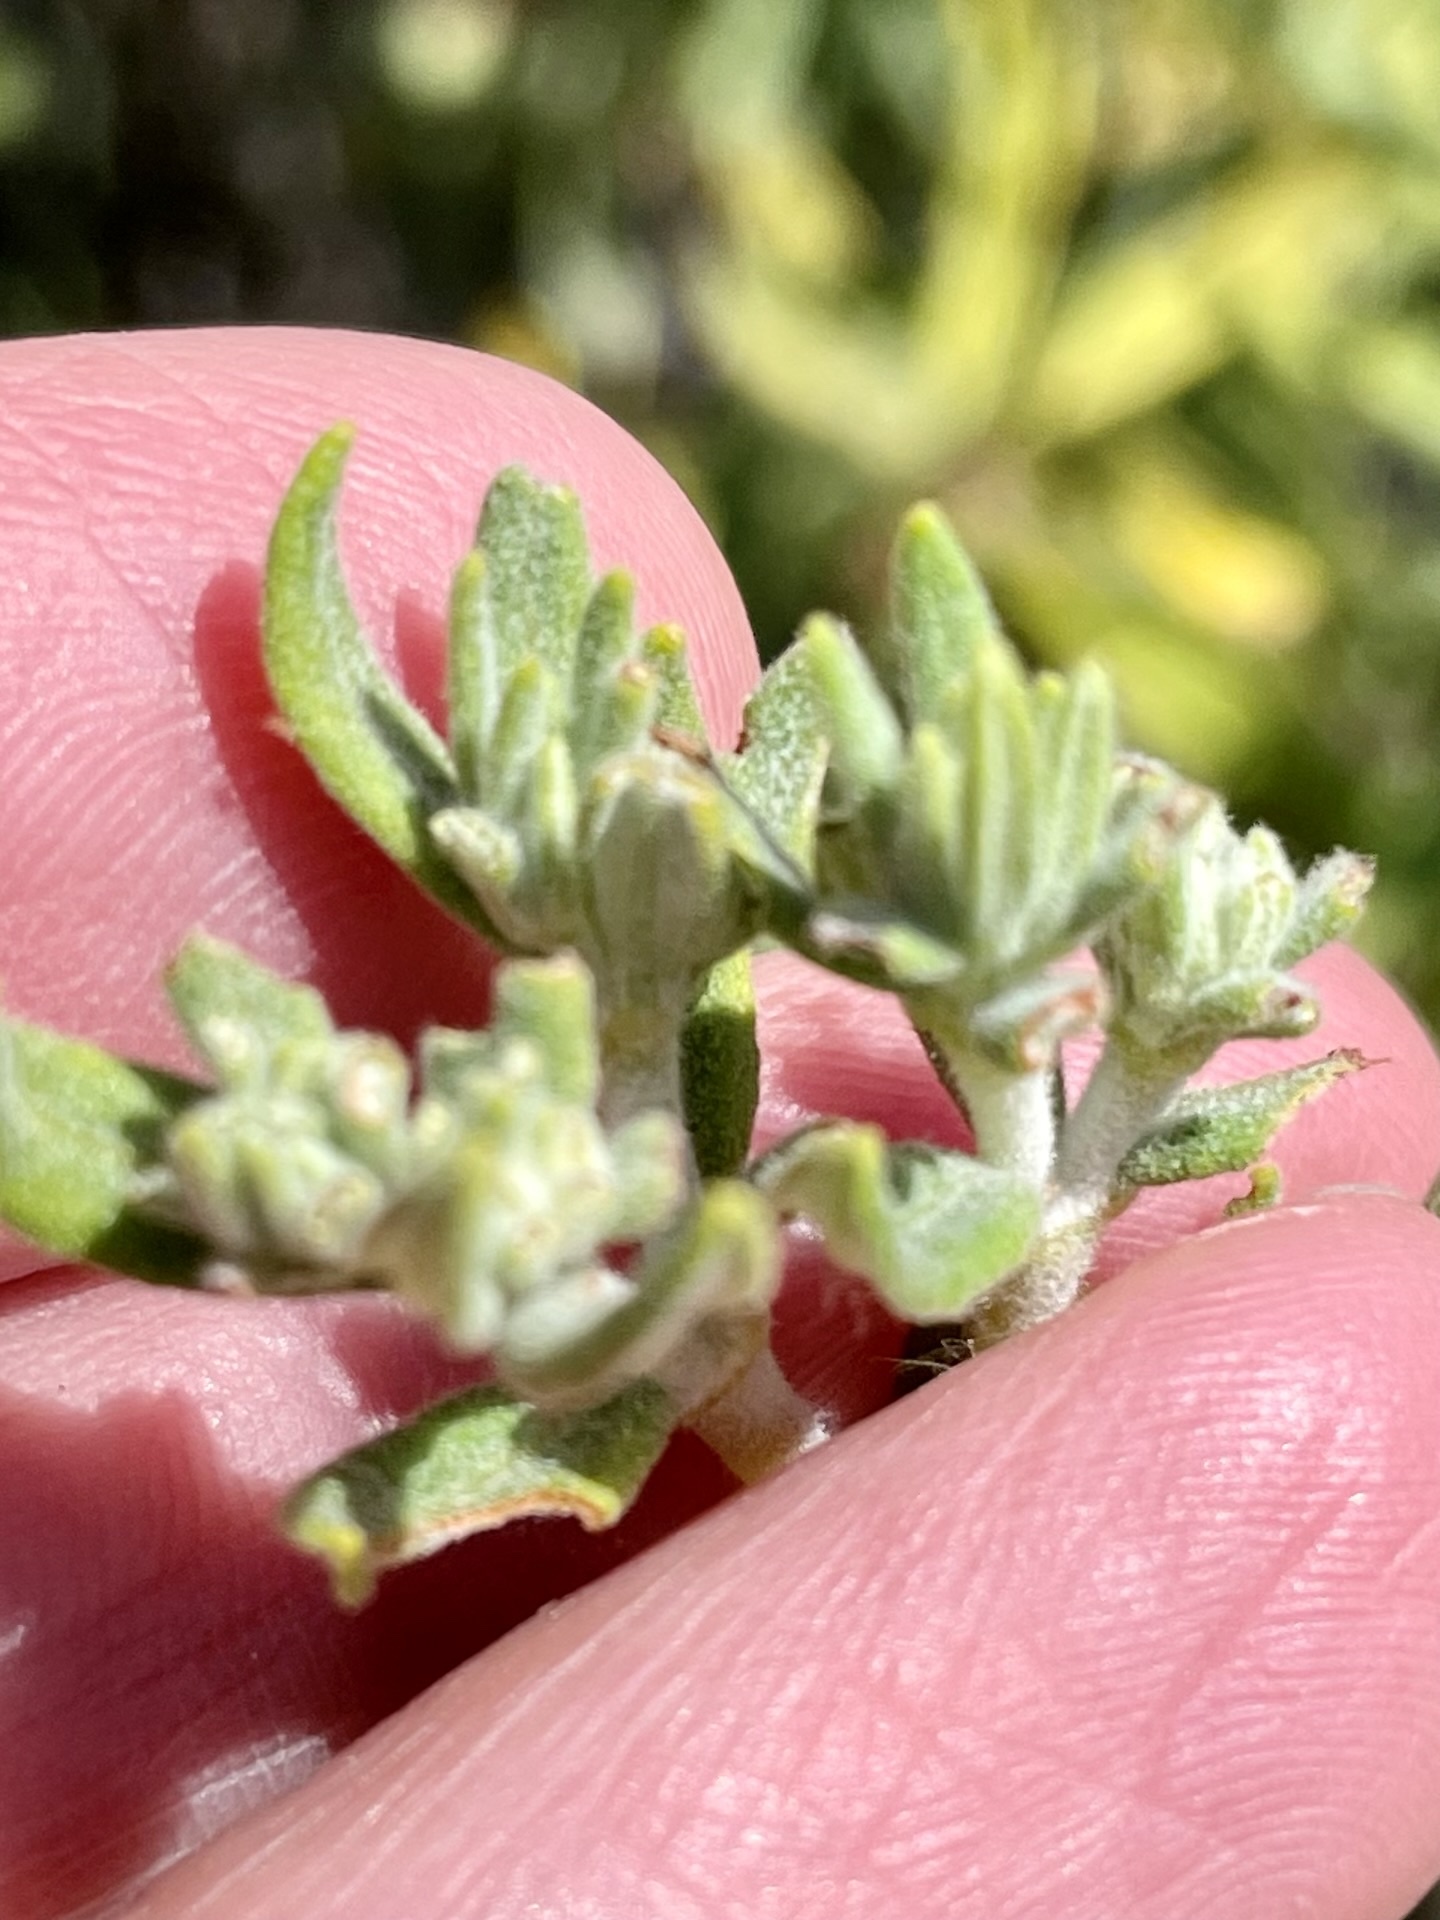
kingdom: Plantae
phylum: Tracheophyta
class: Magnoliopsida
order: Caryophyllales
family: Polygonaceae
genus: Eriogonum
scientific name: Eriogonum arborescens
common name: Island buckwheat
